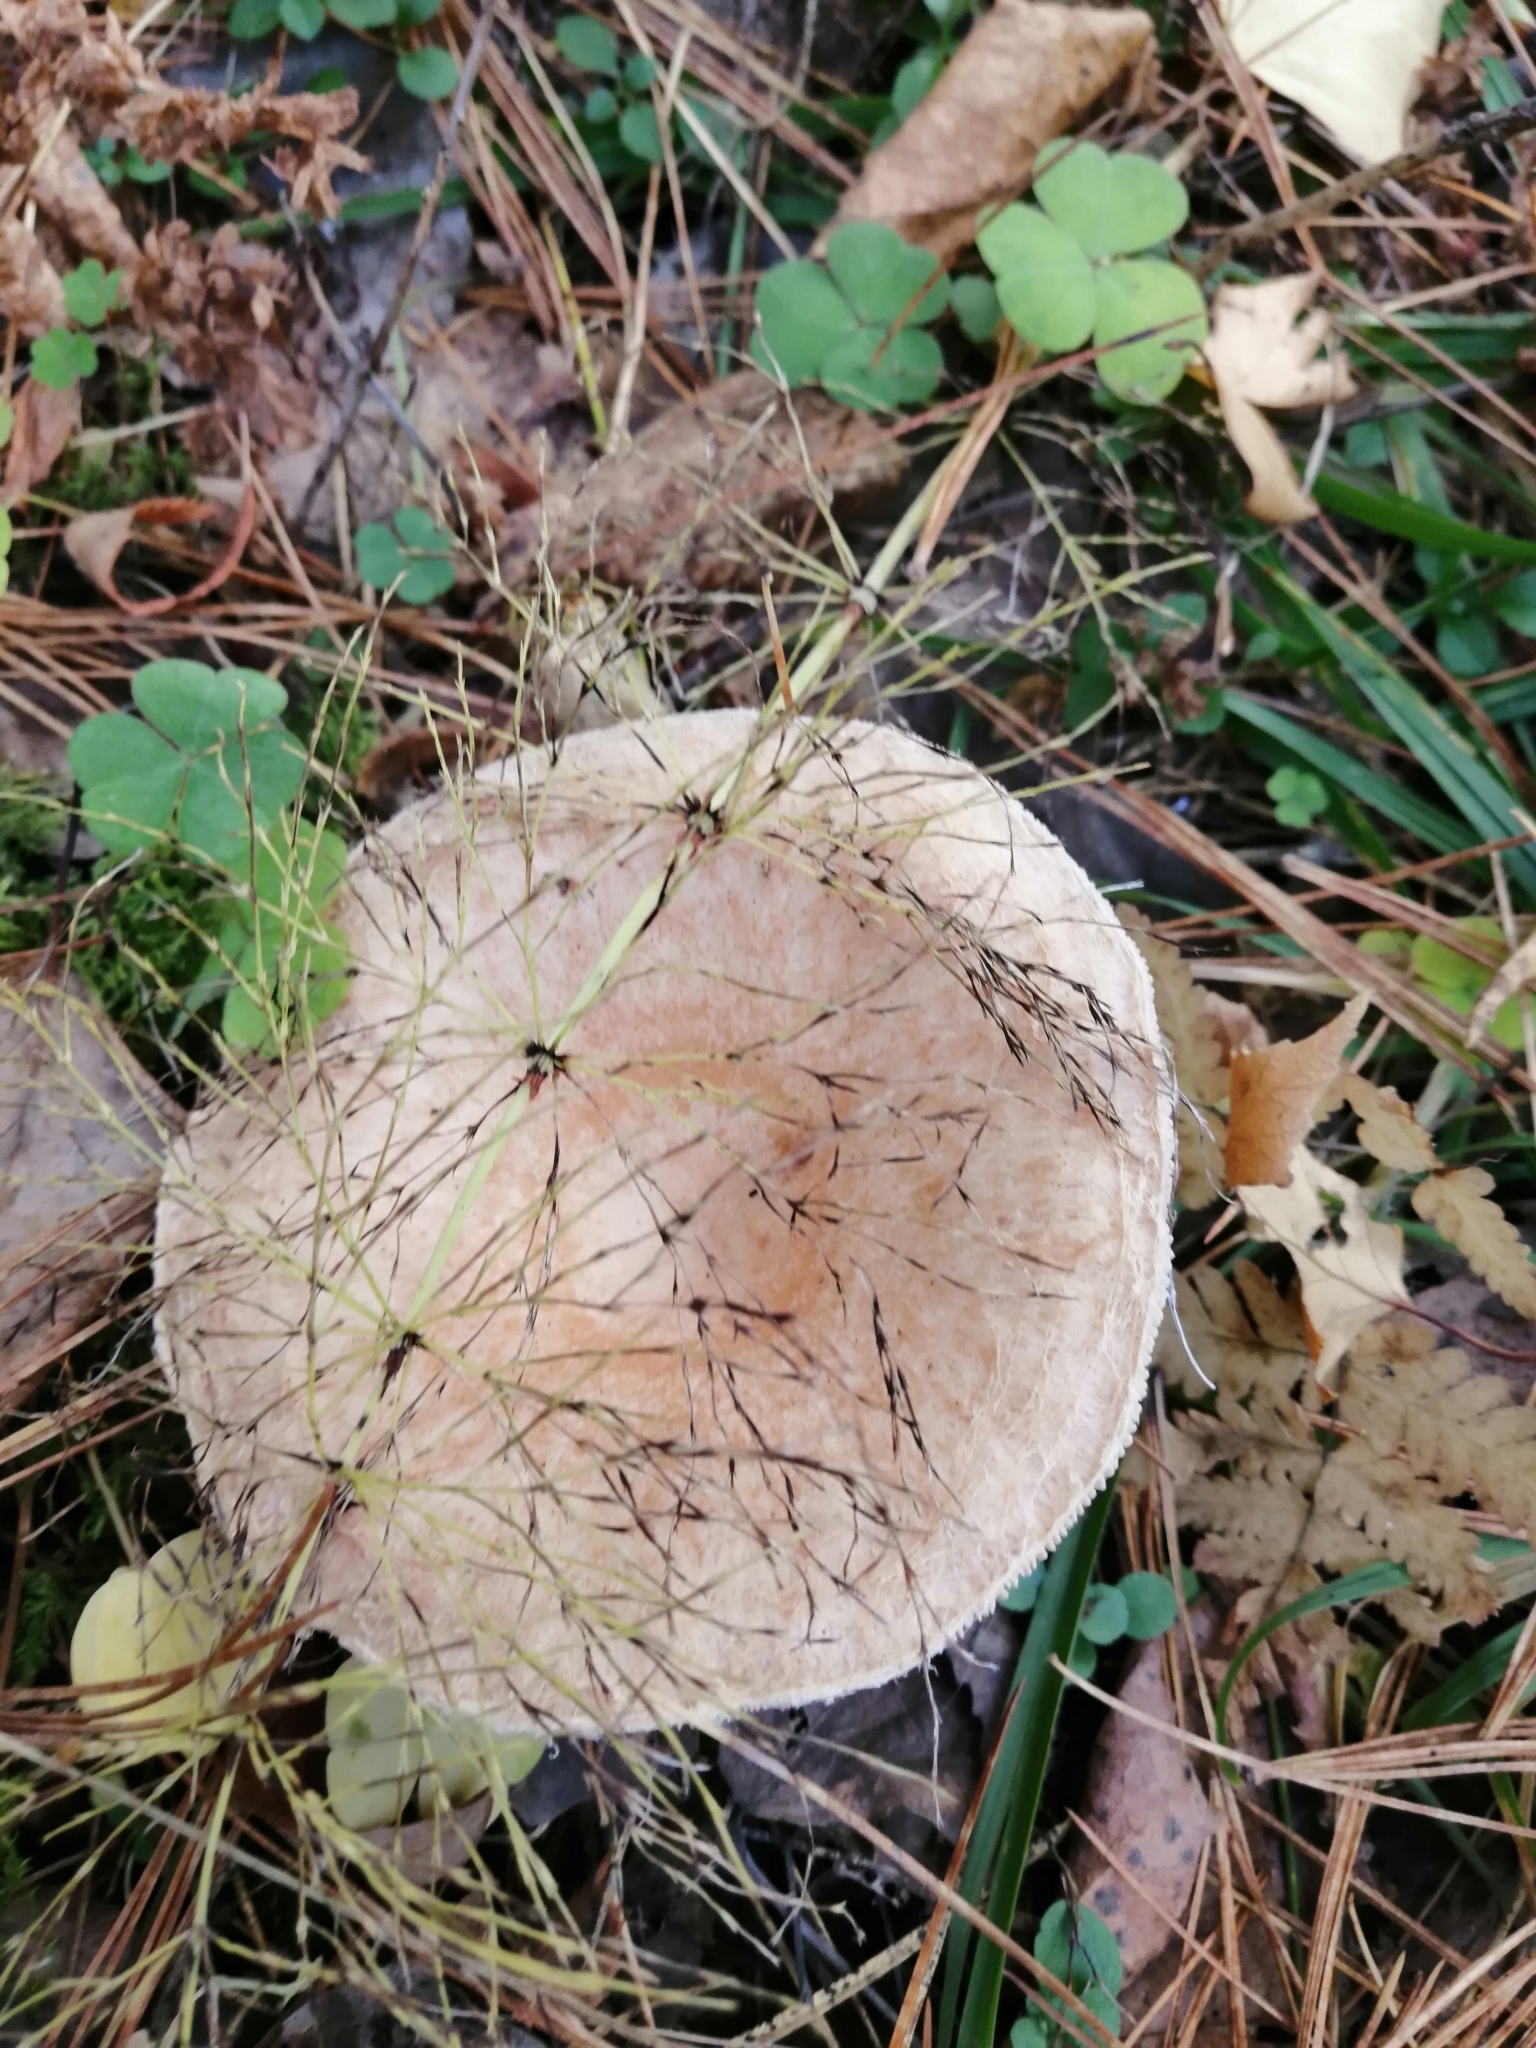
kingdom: Fungi
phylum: Basidiomycota
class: Agaricomycetes
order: Russulales
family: Russulaceae
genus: Lactarius
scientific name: Lactarius torminosus
